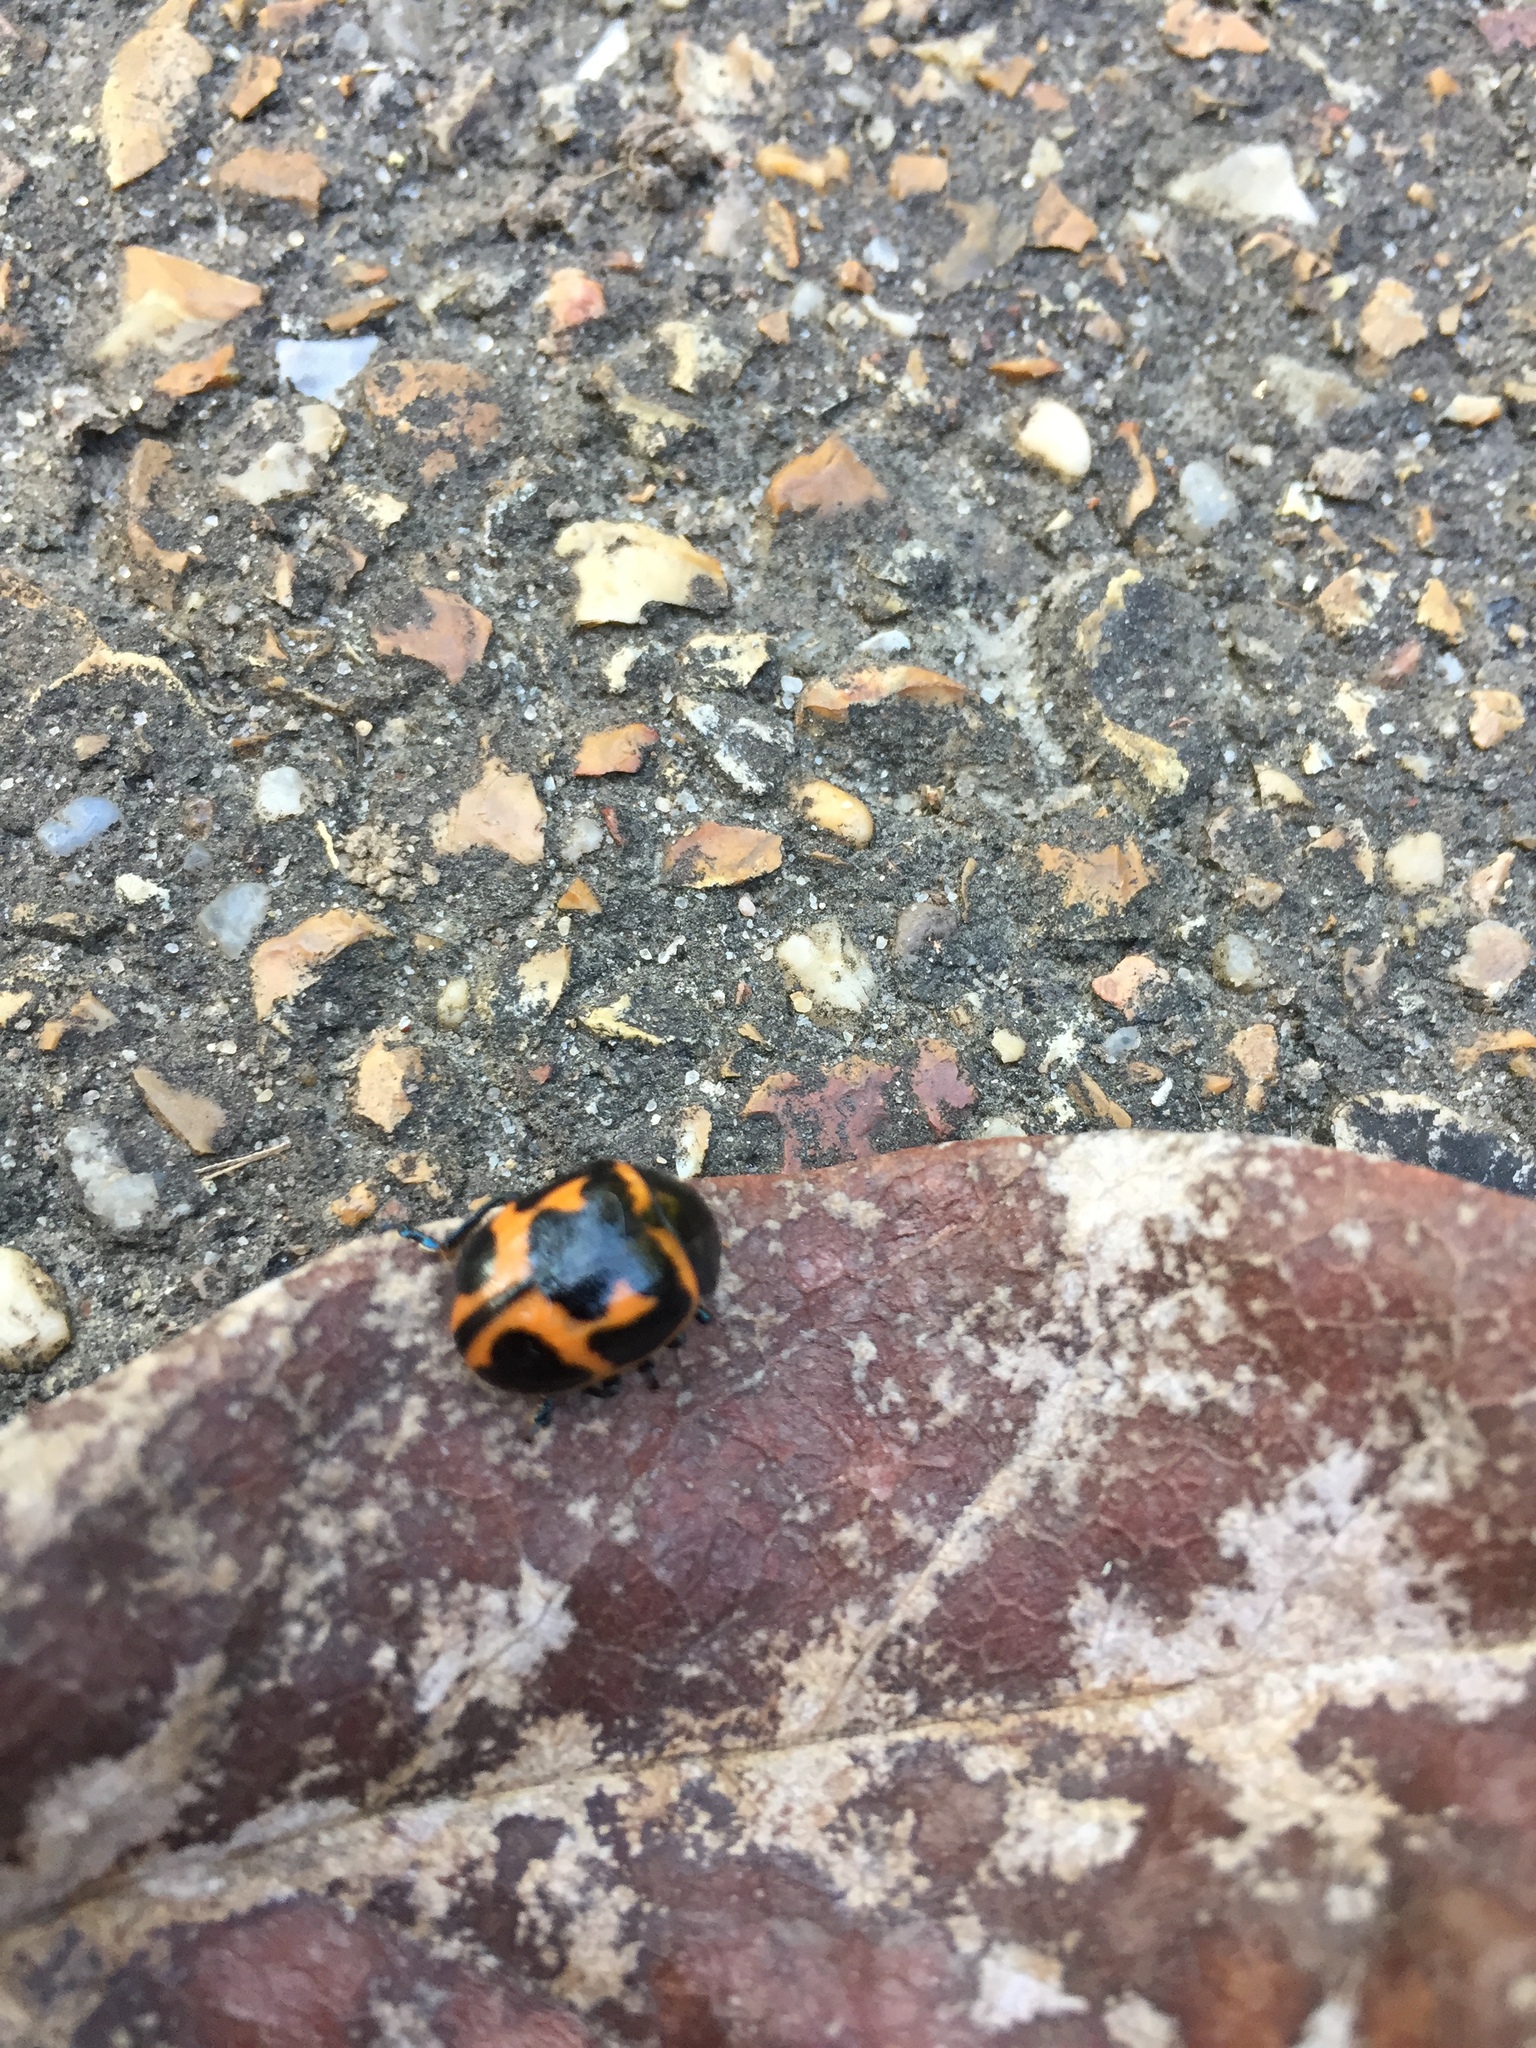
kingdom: Animalia
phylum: Arthropoda
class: Insecta
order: Coleoptera
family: Chrysomelidae
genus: Labidomera
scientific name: Labidomera clivicollis
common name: Swamp milkweed leaf beetle
